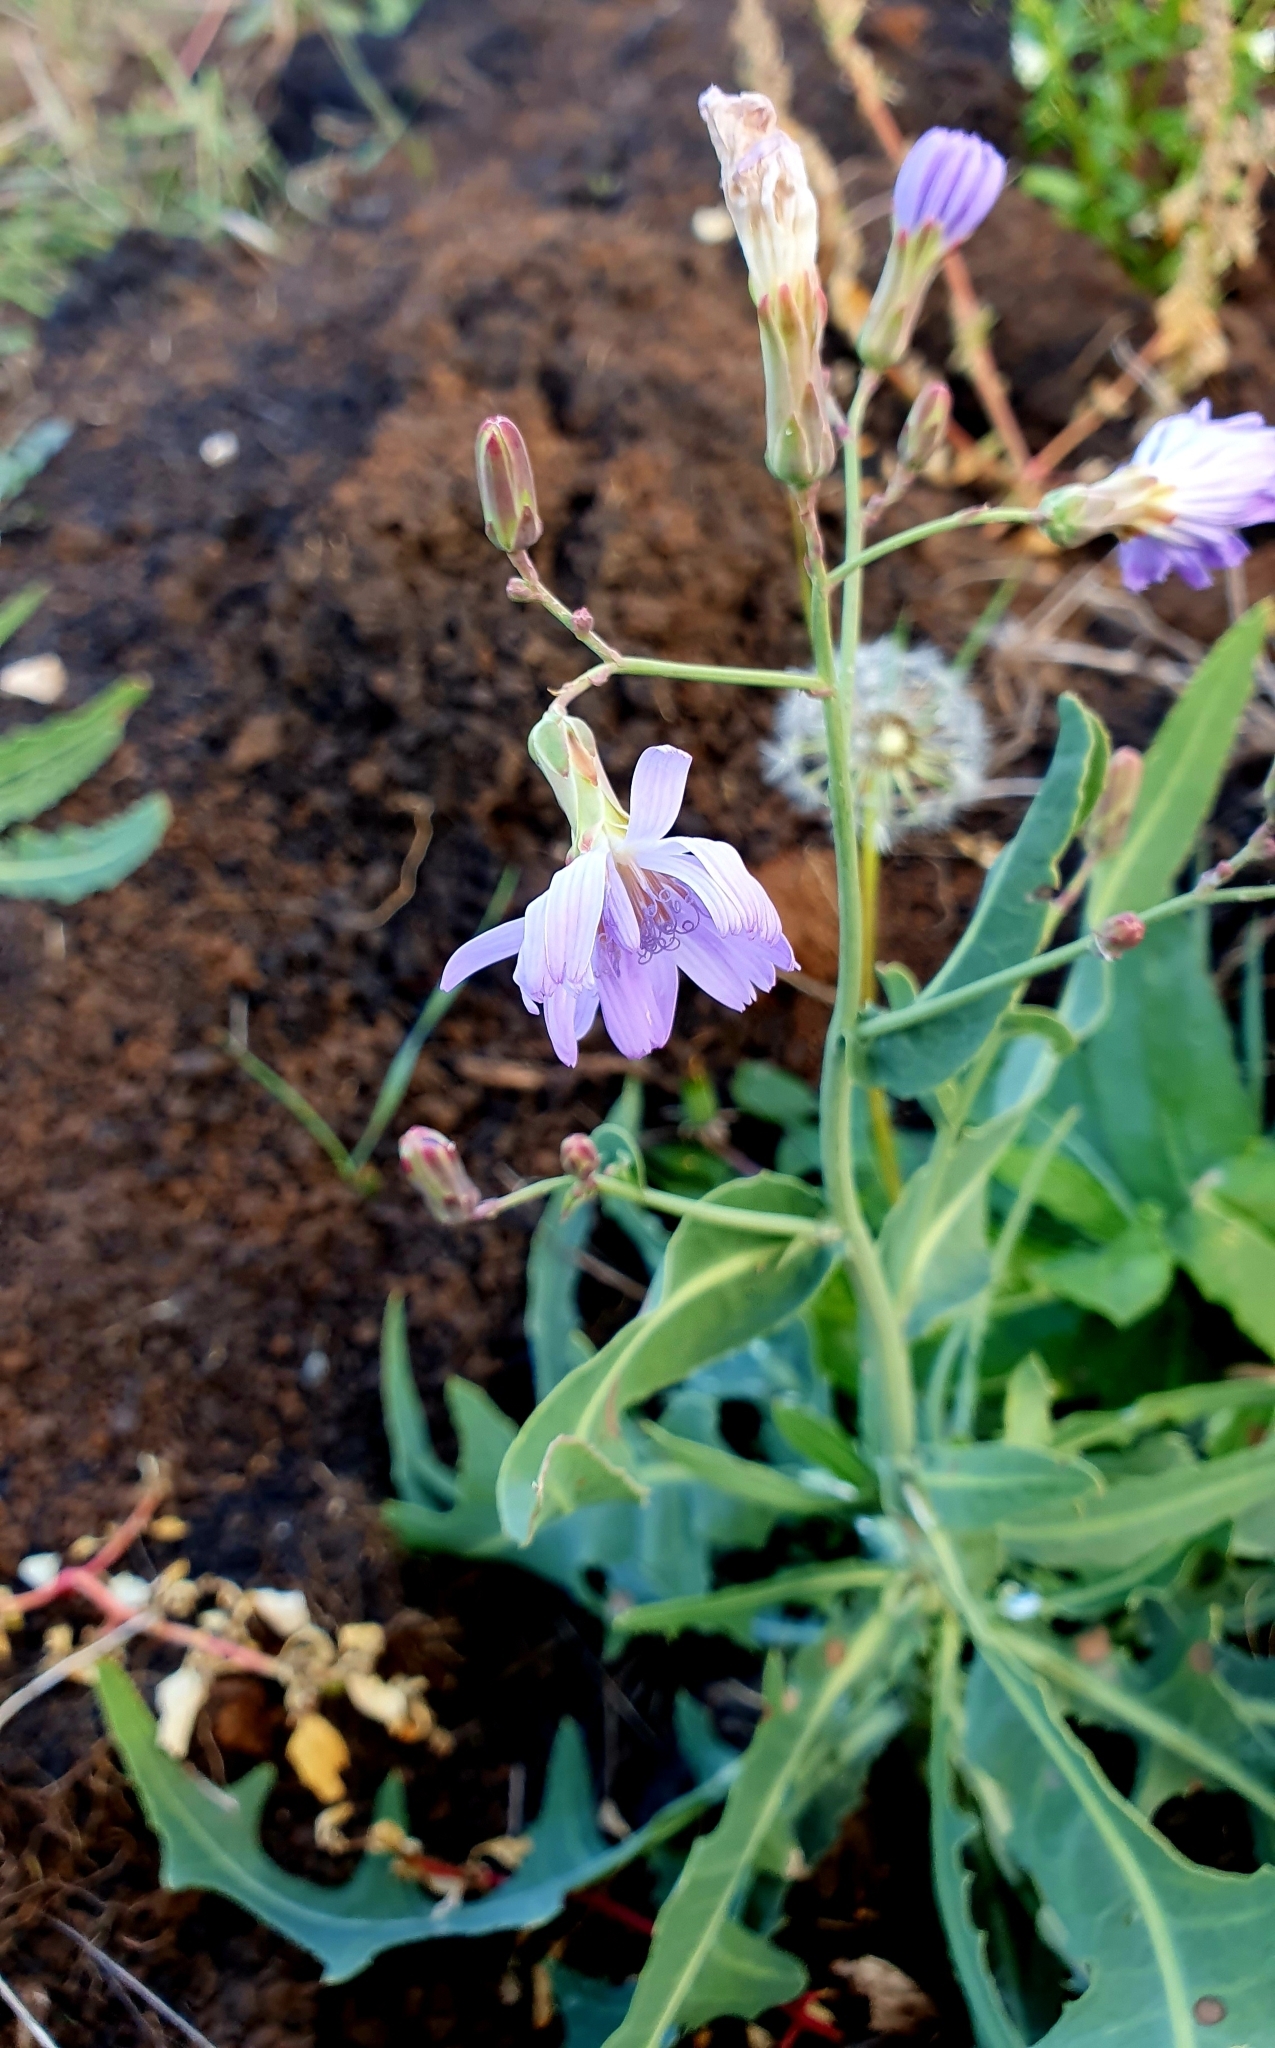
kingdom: Plantae
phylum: Tracheophyta
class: Magnoliopsida
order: Asterales
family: Asteraceae
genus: Lactuca
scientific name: Lactuca tatarica
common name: Blue lettuce
